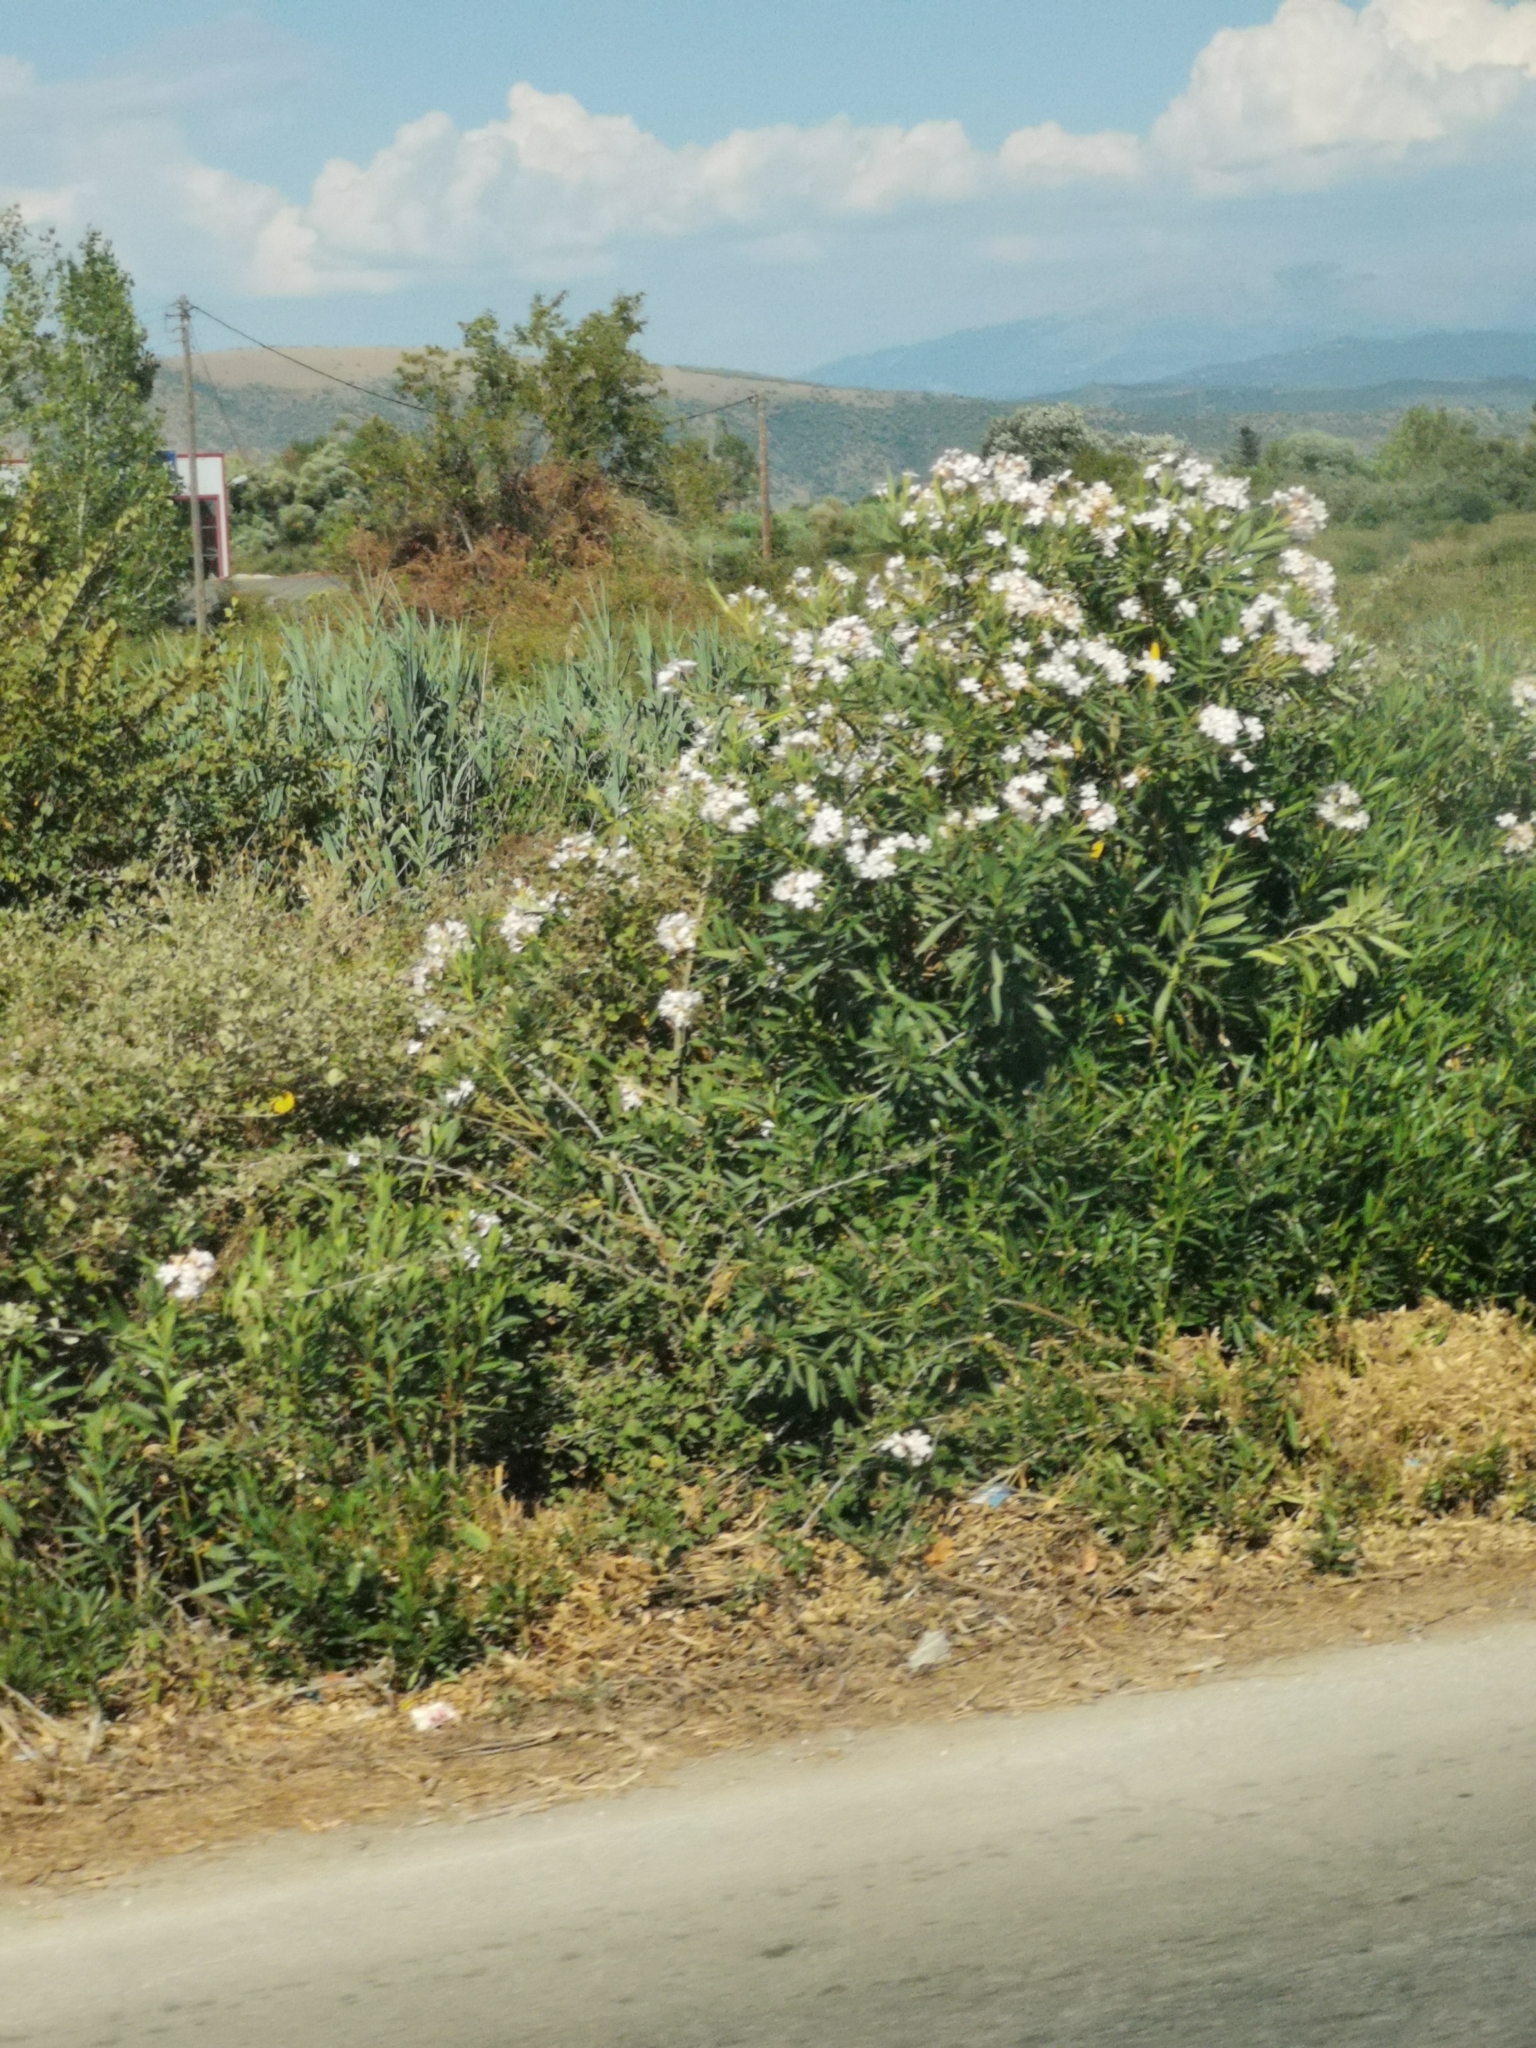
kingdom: Plantae
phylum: Tracheophyta
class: Magnoliopsida
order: Gentianales
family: Apocynaceae
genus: Nerium
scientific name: Nerium oleander
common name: Oleander
